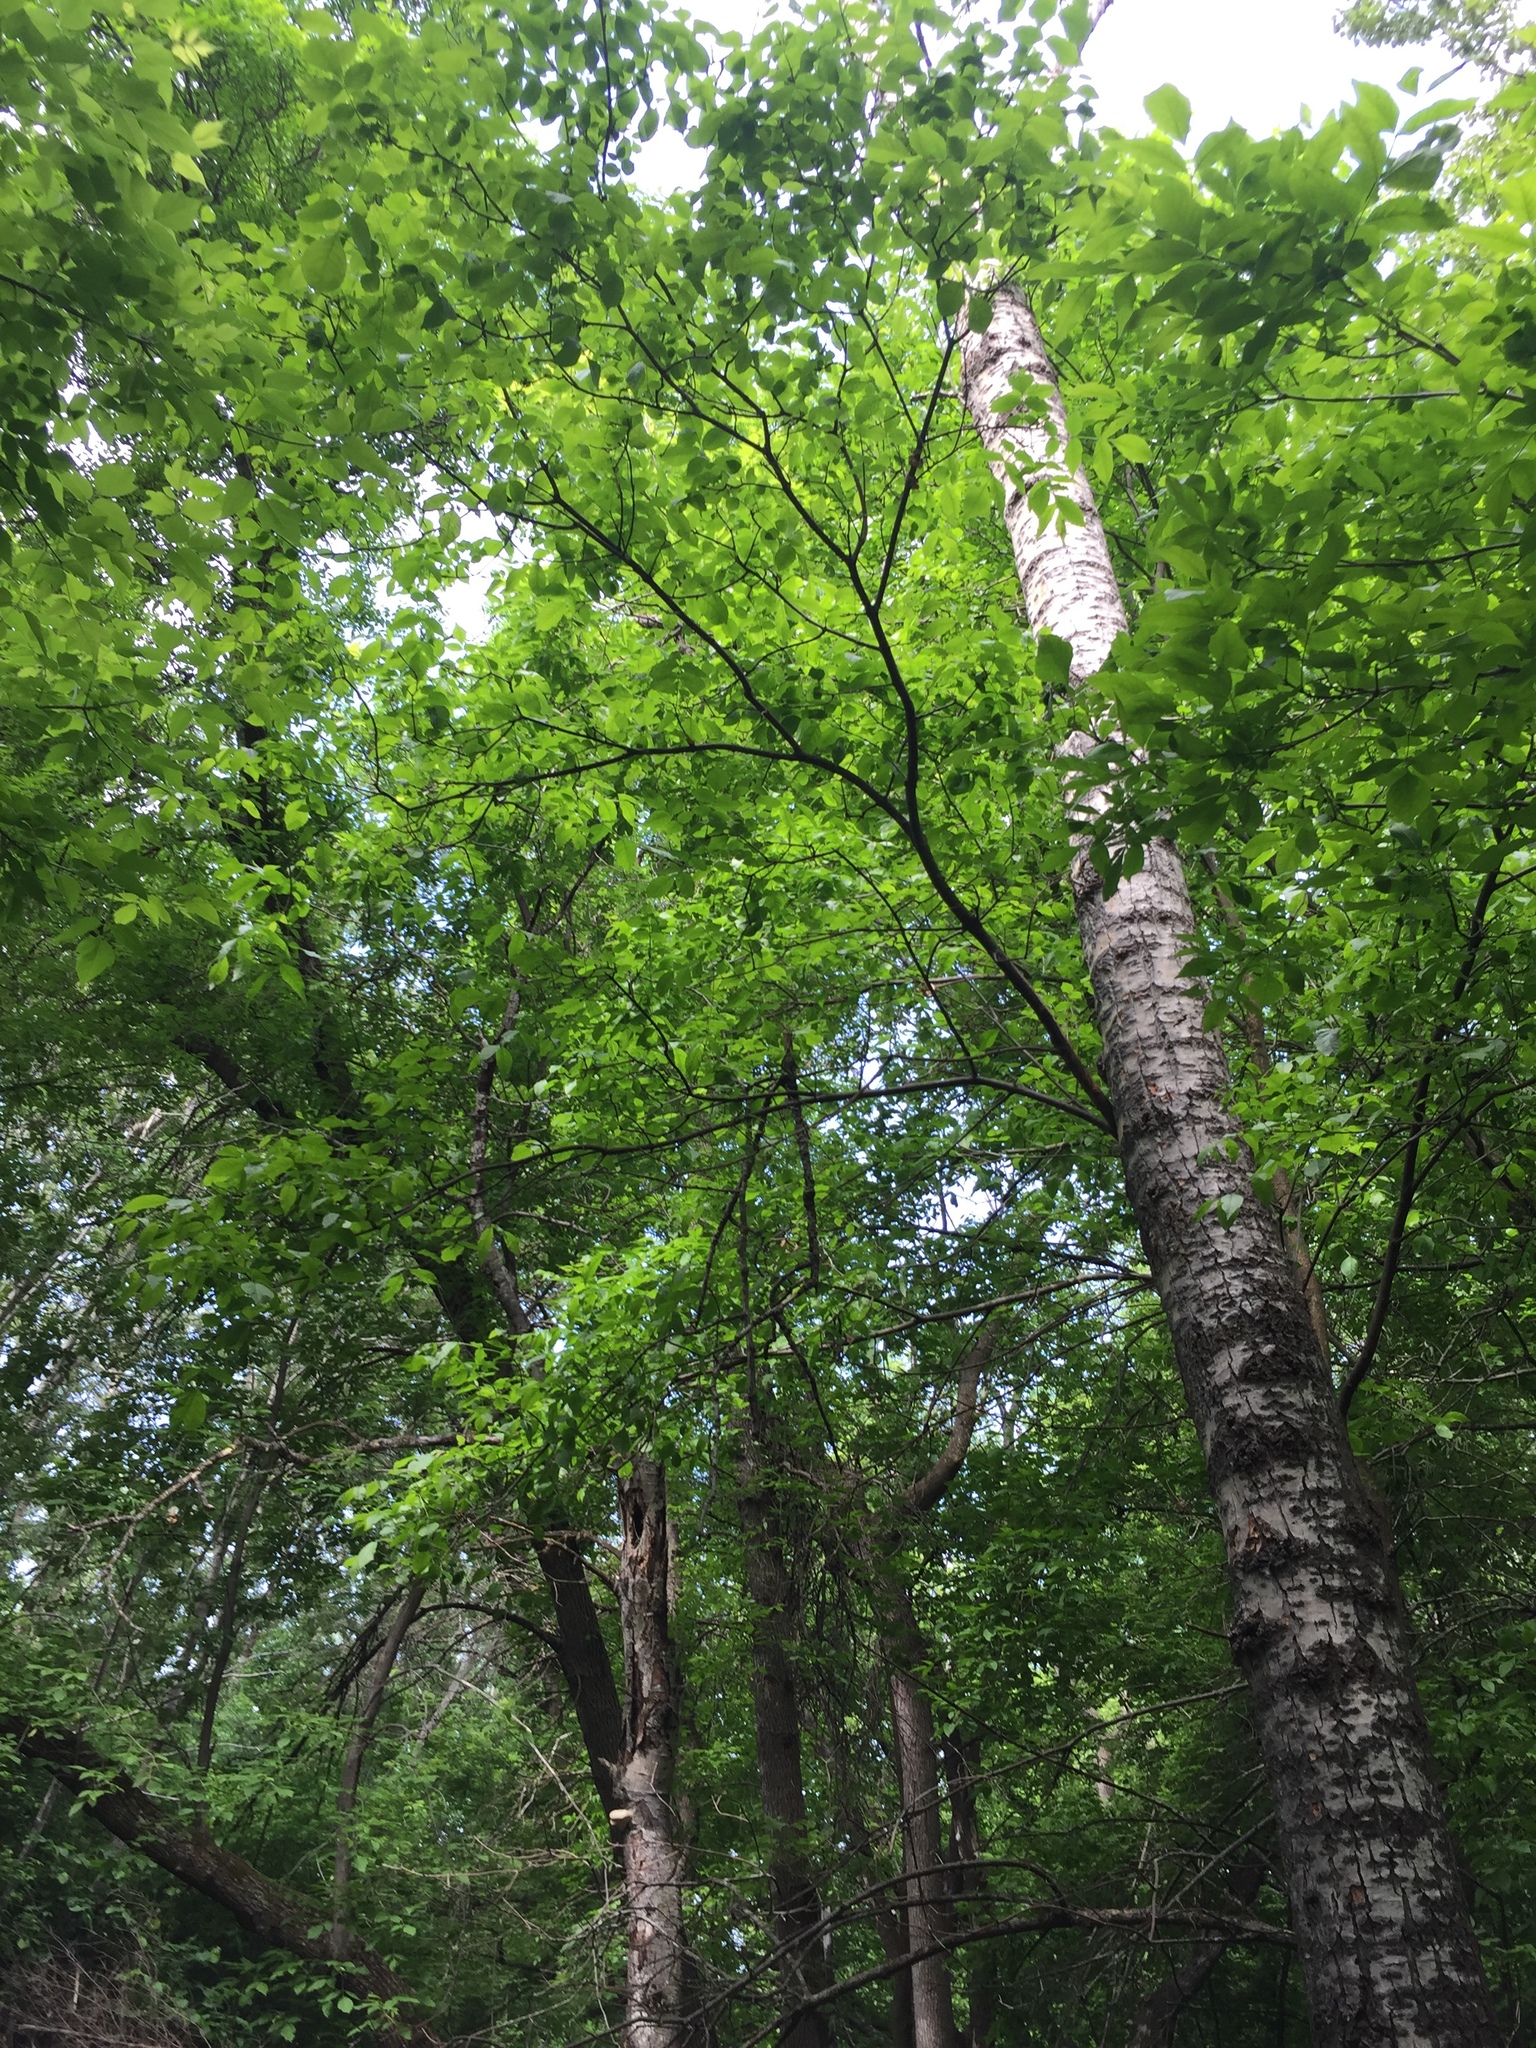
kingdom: Plantae
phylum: Tracheophyta
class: Magnoliopsida
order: Malpighiales
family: Salicaceae
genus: Populus
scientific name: Populus tremuloides
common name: Quaking aspen
